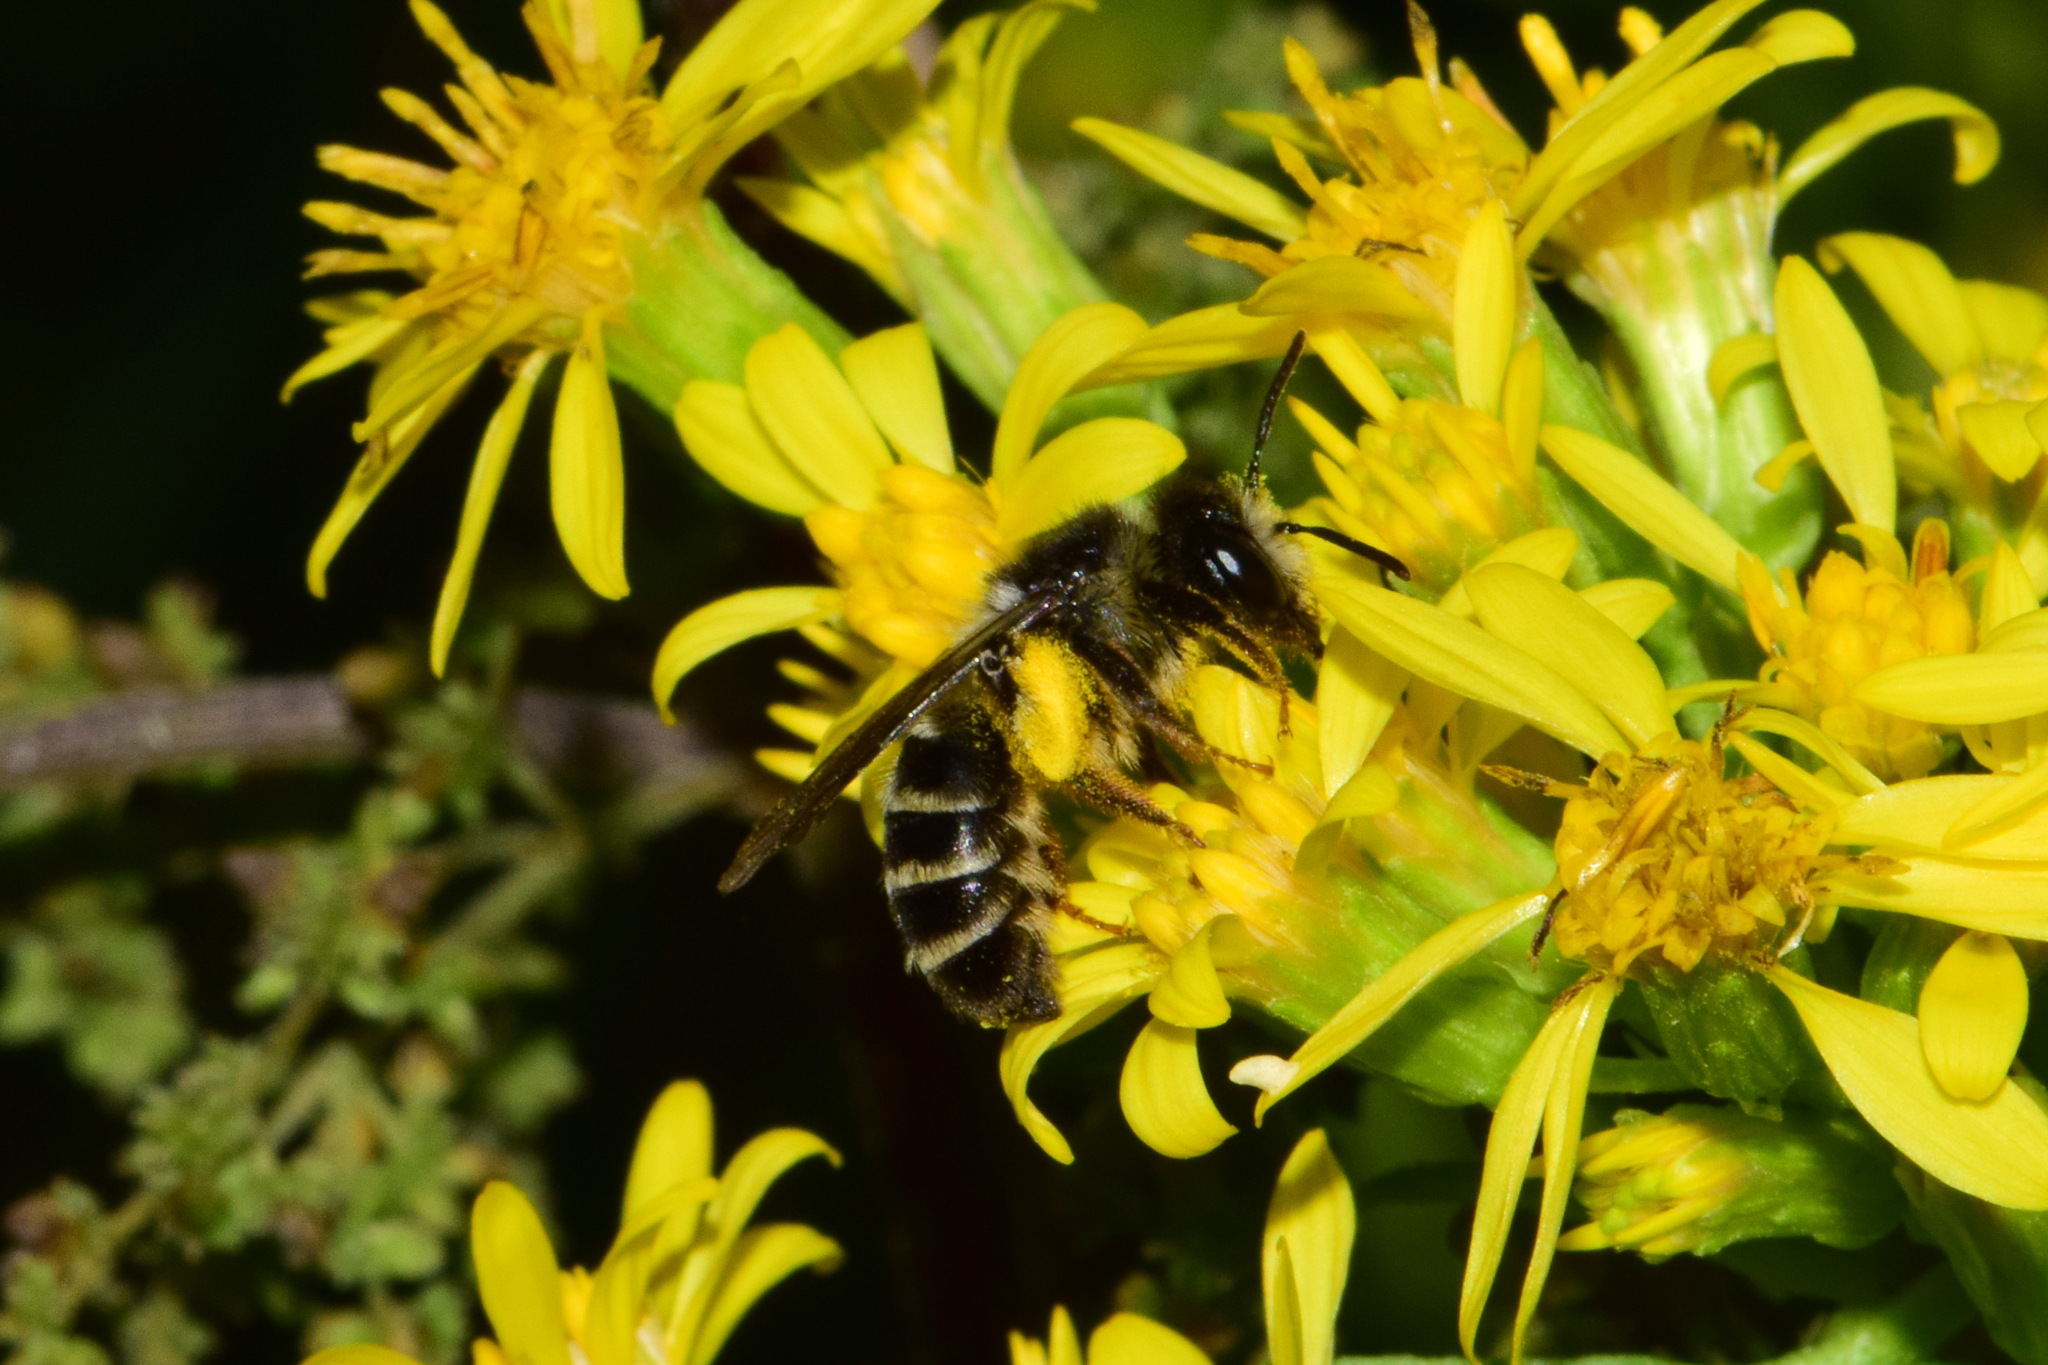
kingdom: Animalia
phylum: Arthropoda
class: Insecta
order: Hymenoptera
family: Andrenidae
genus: Andrena
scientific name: Andrena denticulata
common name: Grey-banded mining bee
